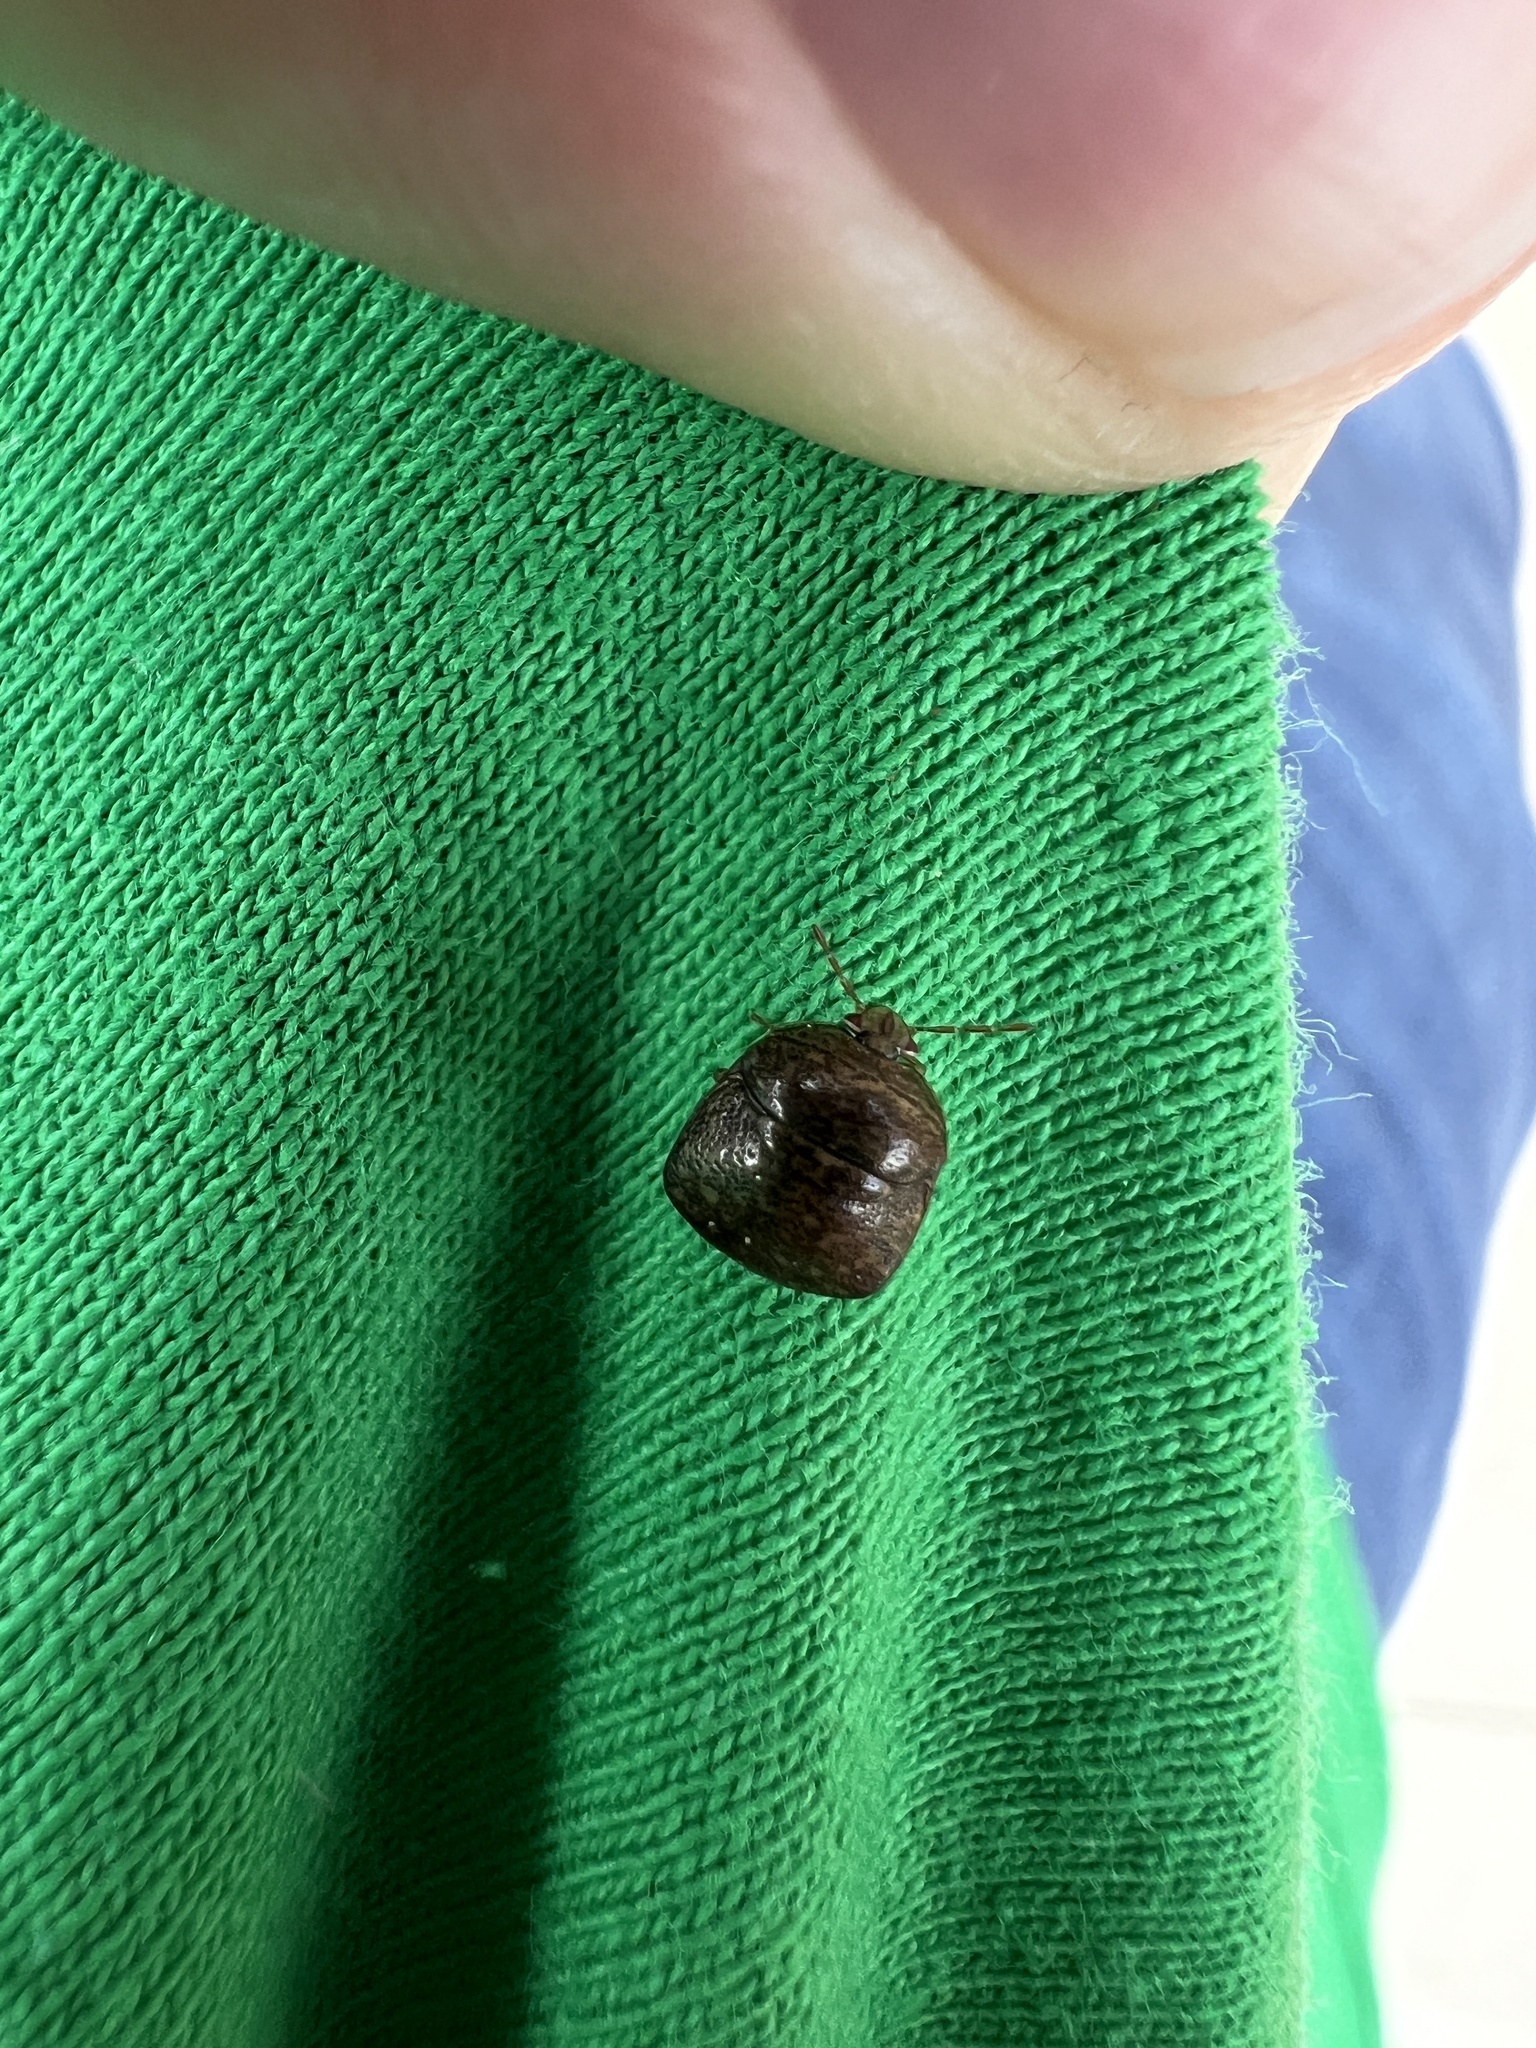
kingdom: Animalia
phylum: Arthropoda
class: Insecta
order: Hemiptera
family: Plataspidae
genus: Megacopta
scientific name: Megacopta cribraria
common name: Bean plataspid
